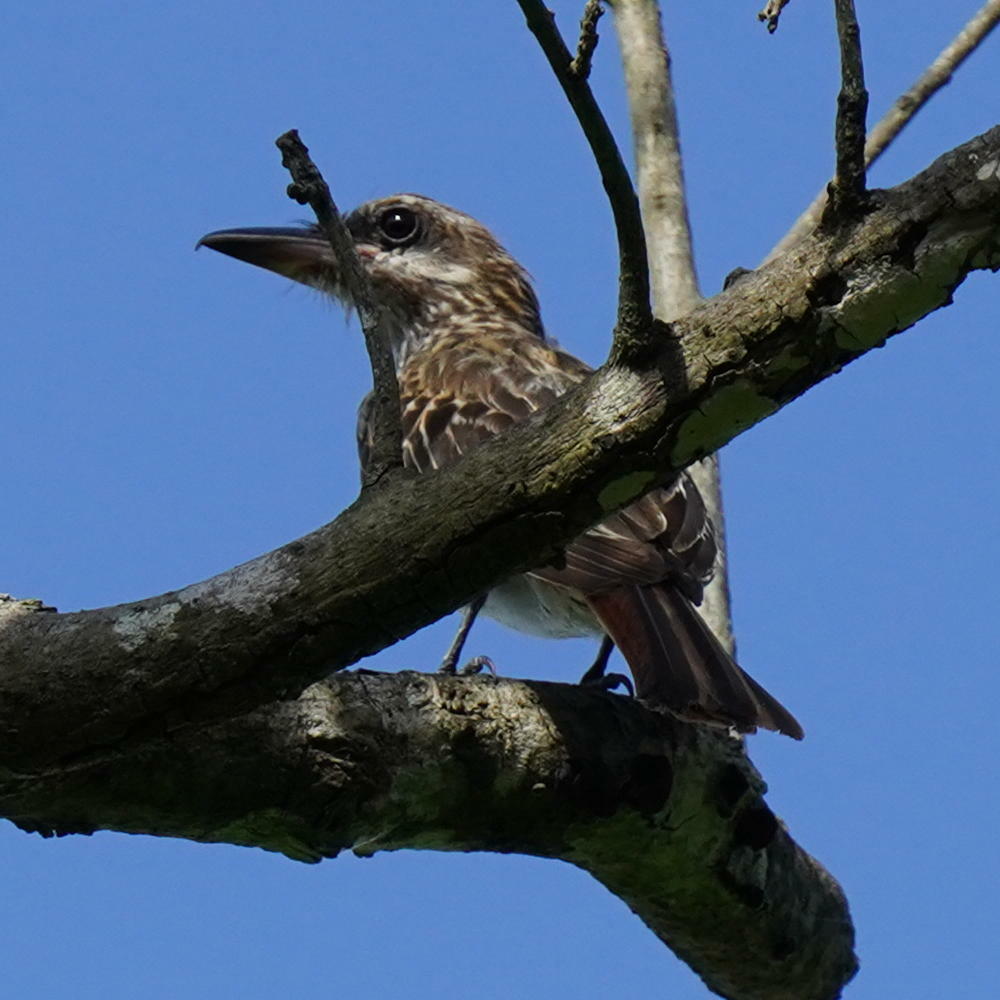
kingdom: Animalia
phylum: Chordata
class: Aves
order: Passeriformes
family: Tyrannidae
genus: Myiodynastes
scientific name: Myiodynastes maculatus
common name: Streaked flycatcher
